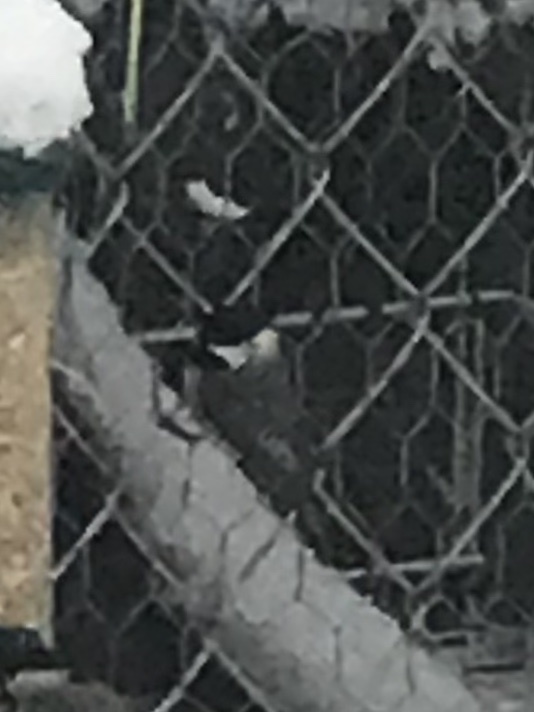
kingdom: Animalia
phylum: Chordata
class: Aves
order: Passeriformes
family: Paridae
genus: Poecile
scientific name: Poecile carolinensis
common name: Carolina chickadee
